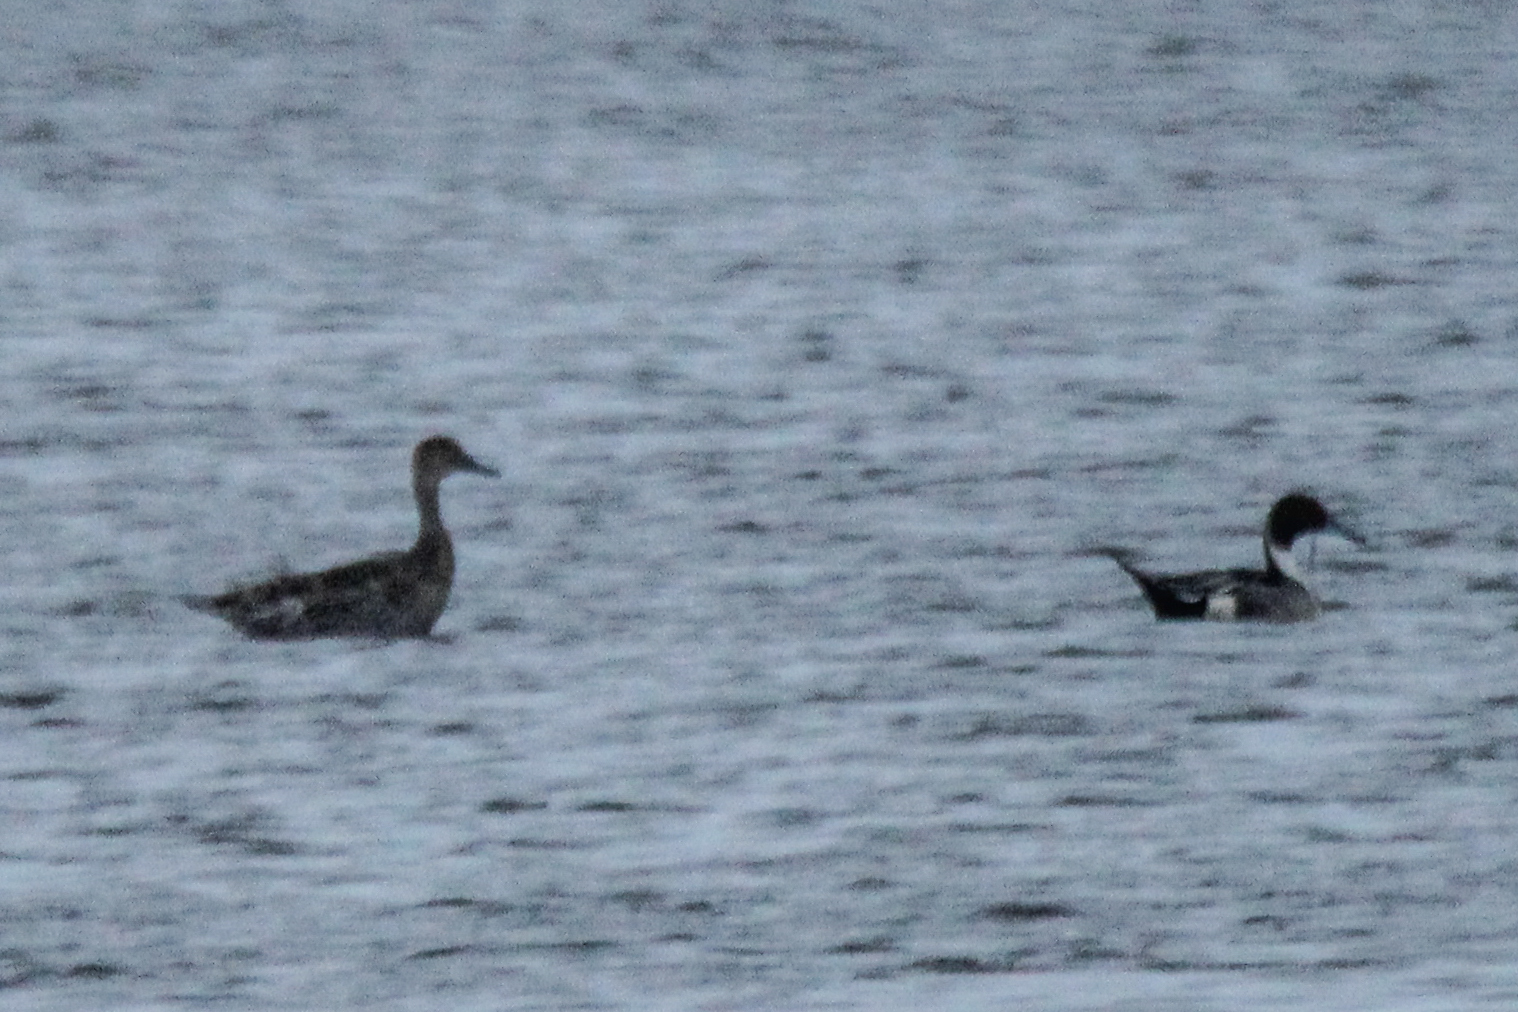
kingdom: Animalia
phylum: Chordata
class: Aves
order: Anseriformes
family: Anatidae
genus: Anas
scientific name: Anas acuta
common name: Northern pintail
